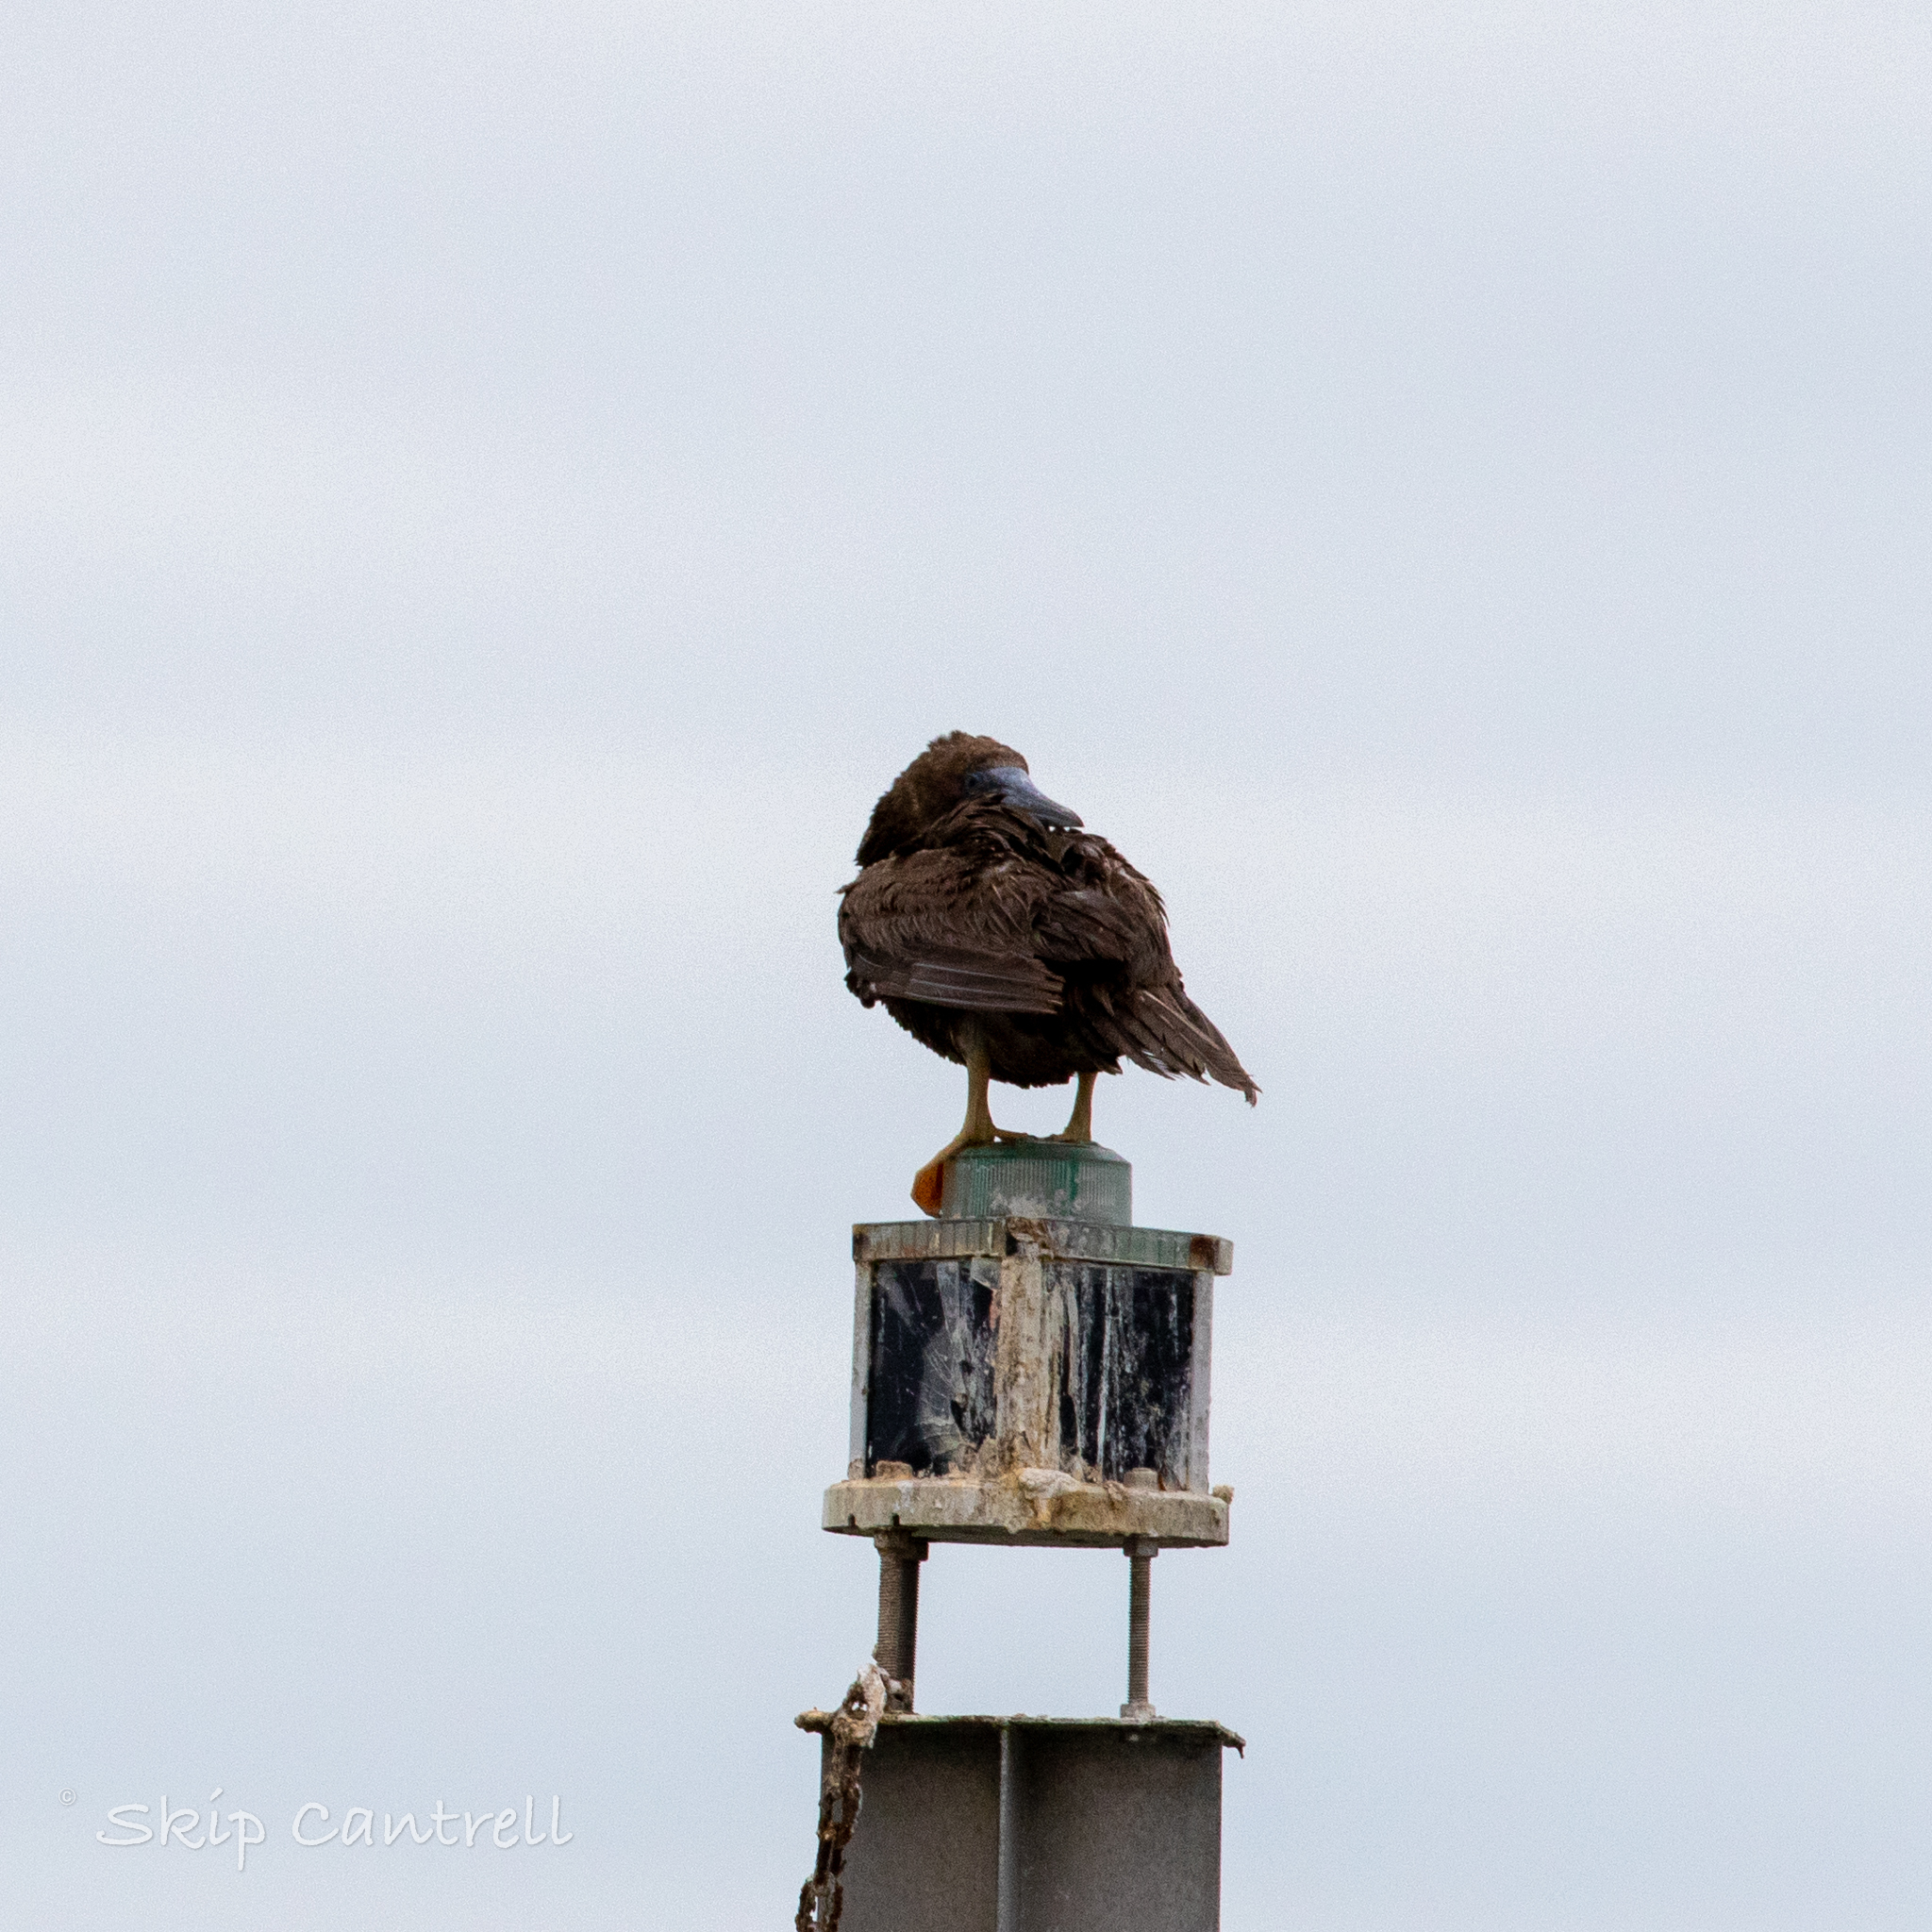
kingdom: Animalia
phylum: Chordata
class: Aves
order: Suliformes
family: Sulidae
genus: Sula
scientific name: Sula leucogaster
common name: Brown booby
